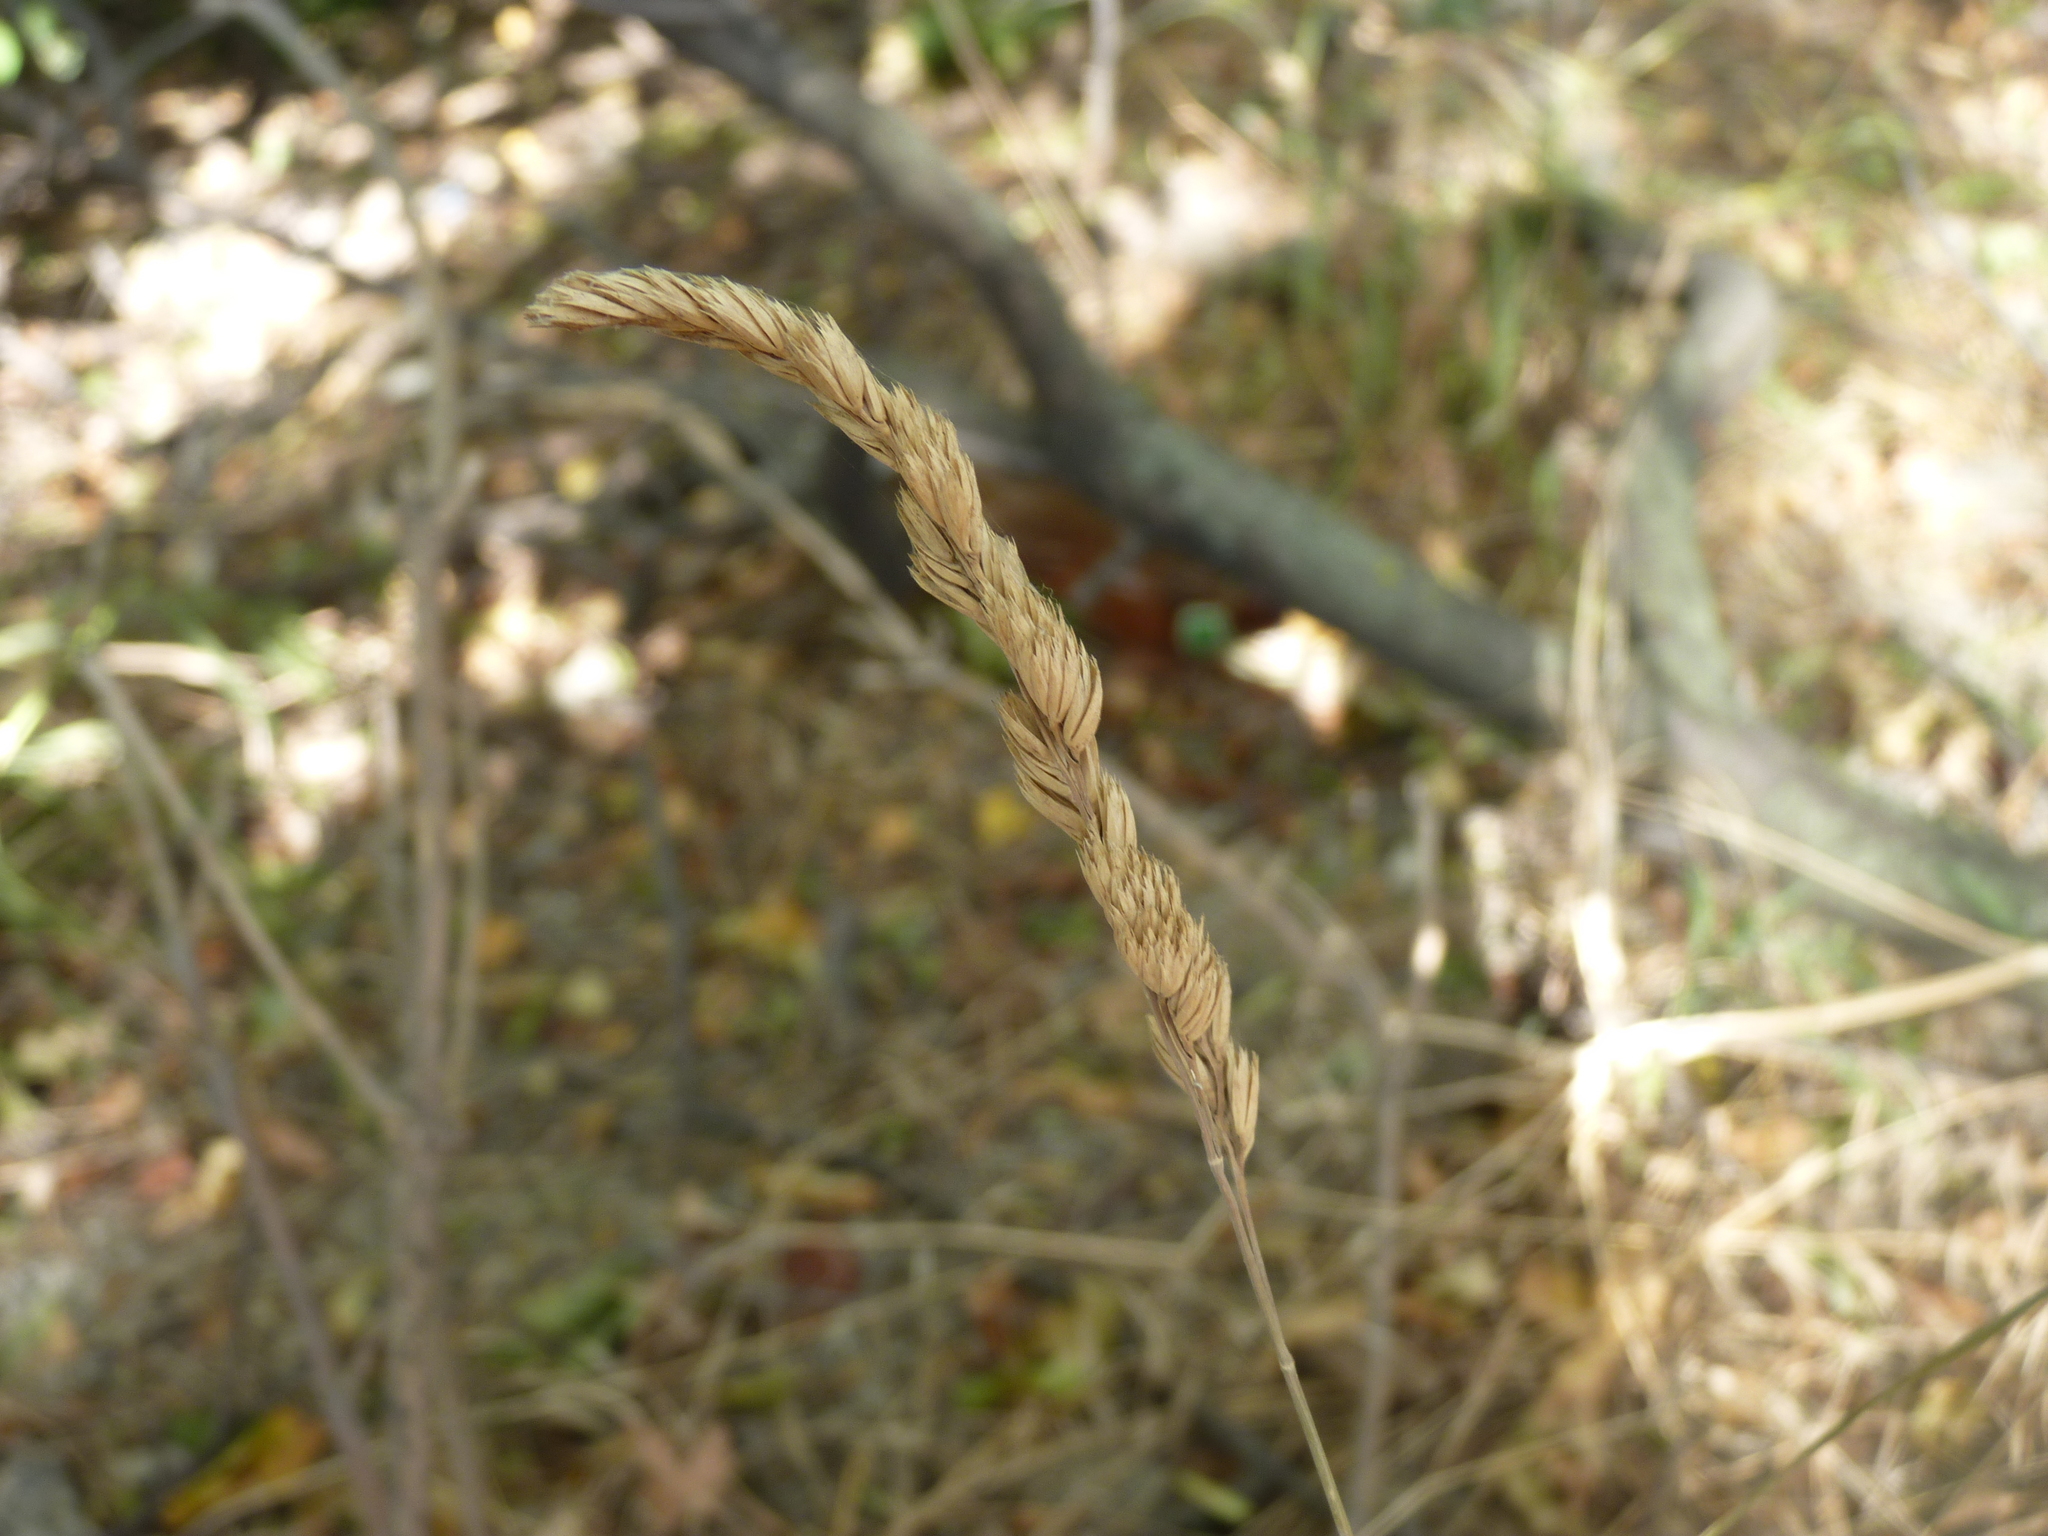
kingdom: Plantae
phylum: Tracheophyta
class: Liliopsida
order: Poales
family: Poaceae
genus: Dactylis
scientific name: Dactylis glomerata
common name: Orchardgrass
